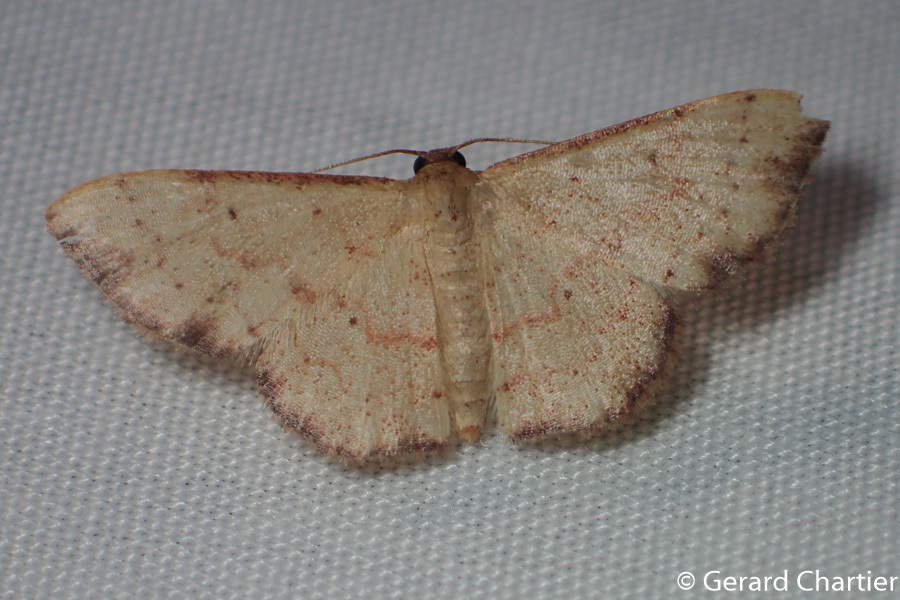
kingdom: Animalia
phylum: Arthropoda
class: Insecta
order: Lepidoptera
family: Geometridae
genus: Idaea
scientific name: Idaea craspedota
